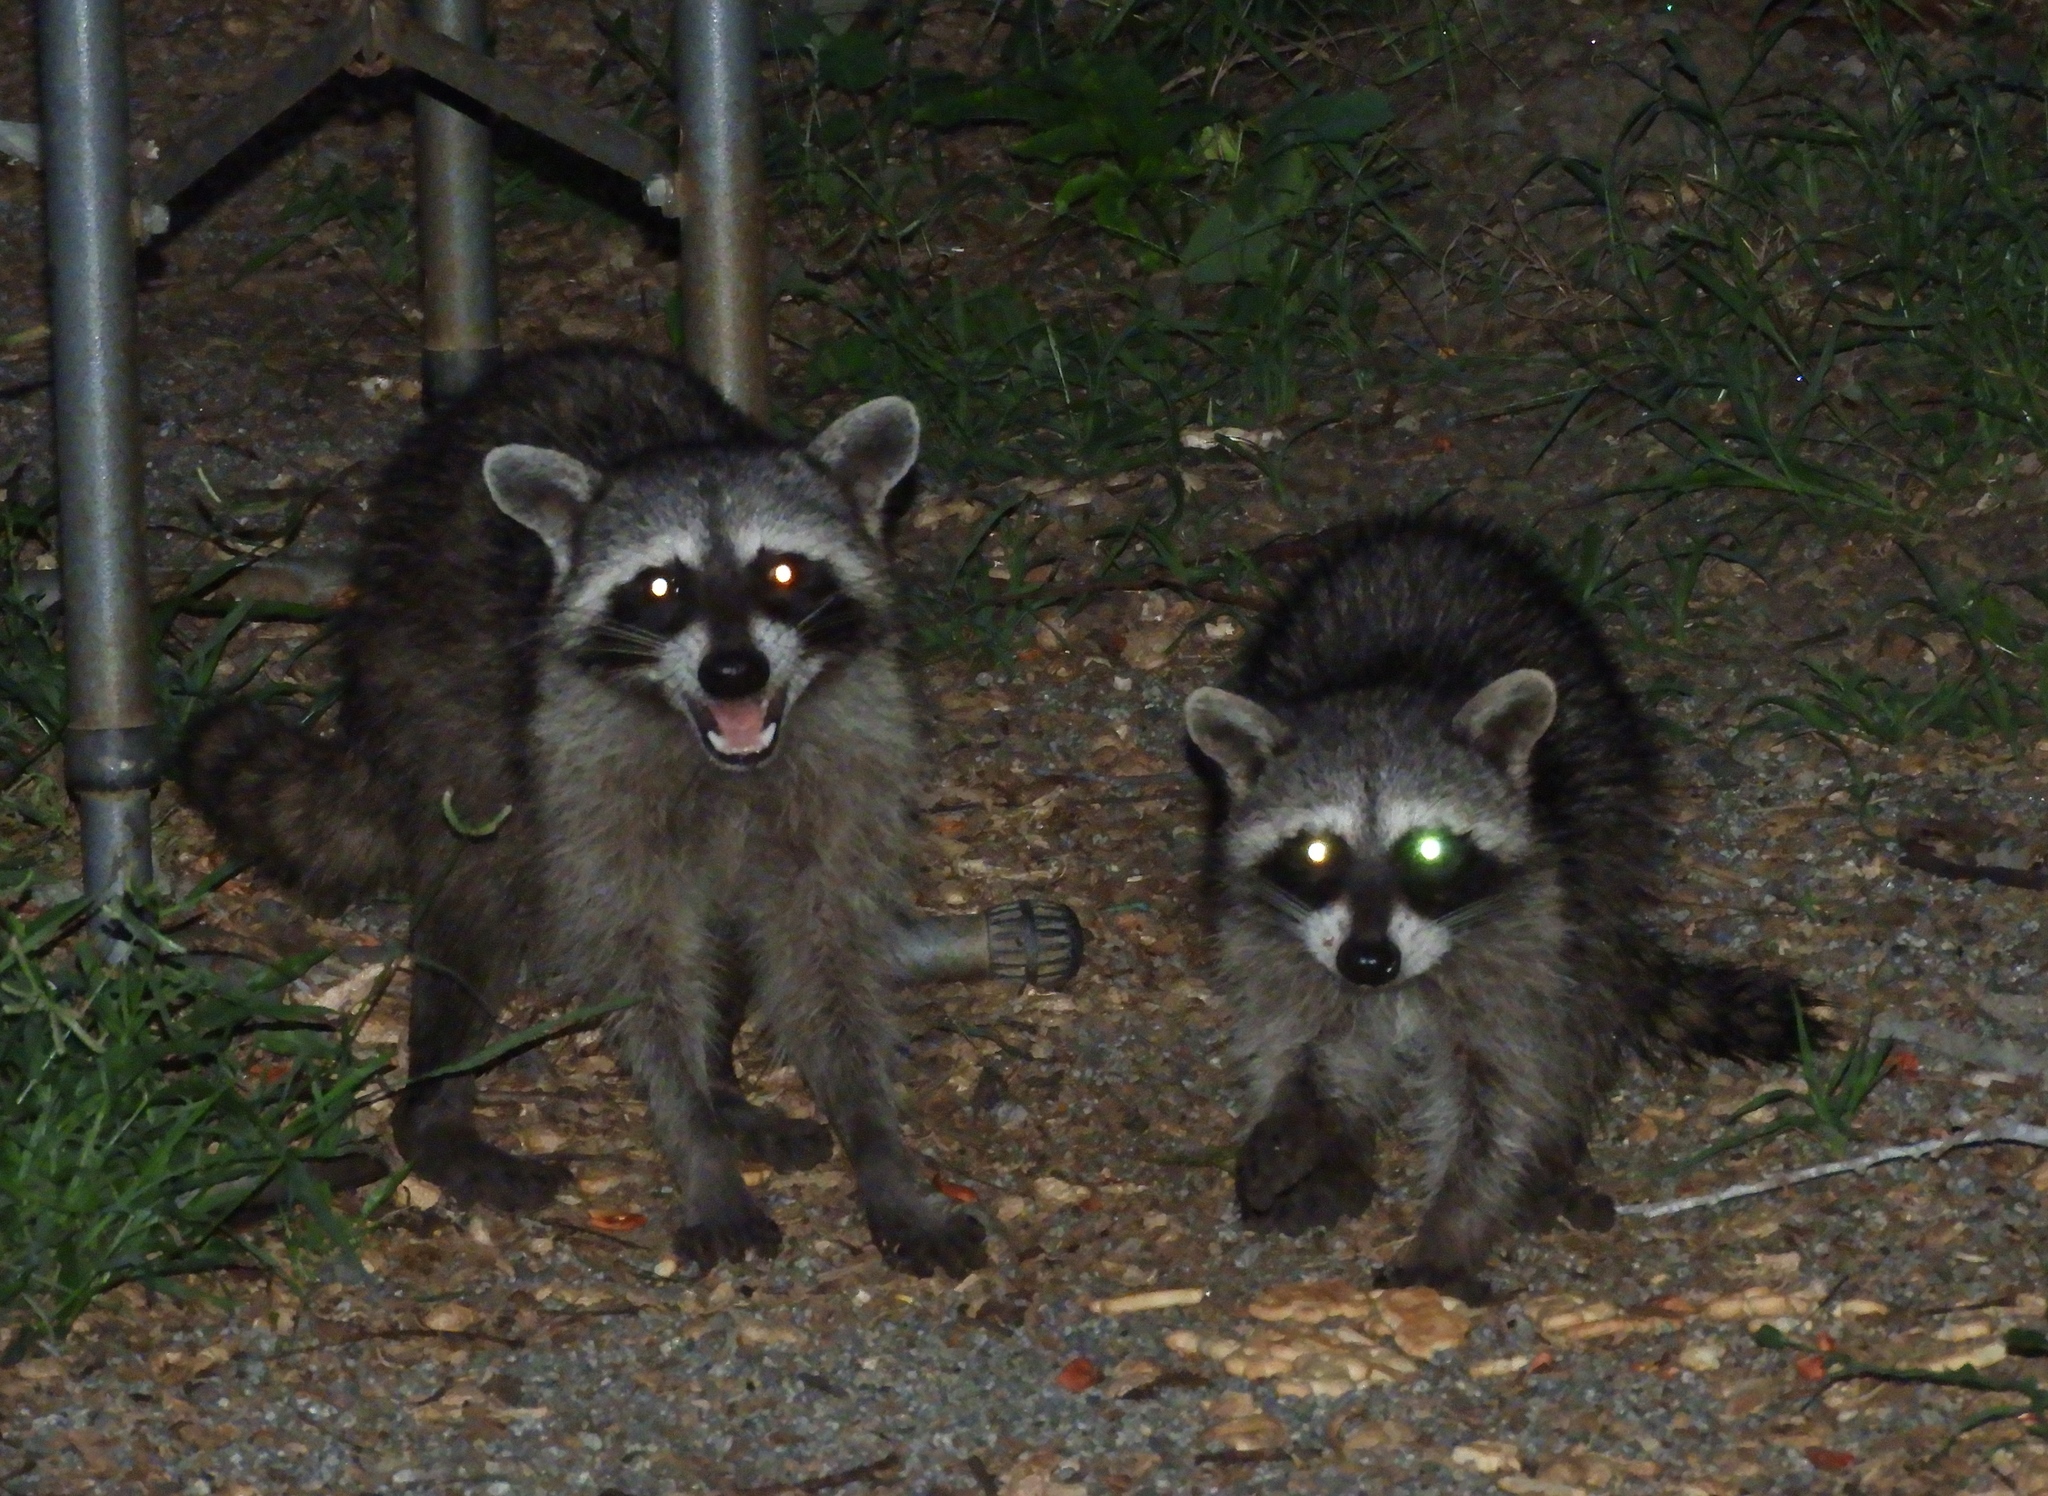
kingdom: Animalia
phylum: Chordata
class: Mammalia
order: Carnivora
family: Procyonidae
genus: Procyon
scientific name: Procyon lotor
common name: Raccoon
